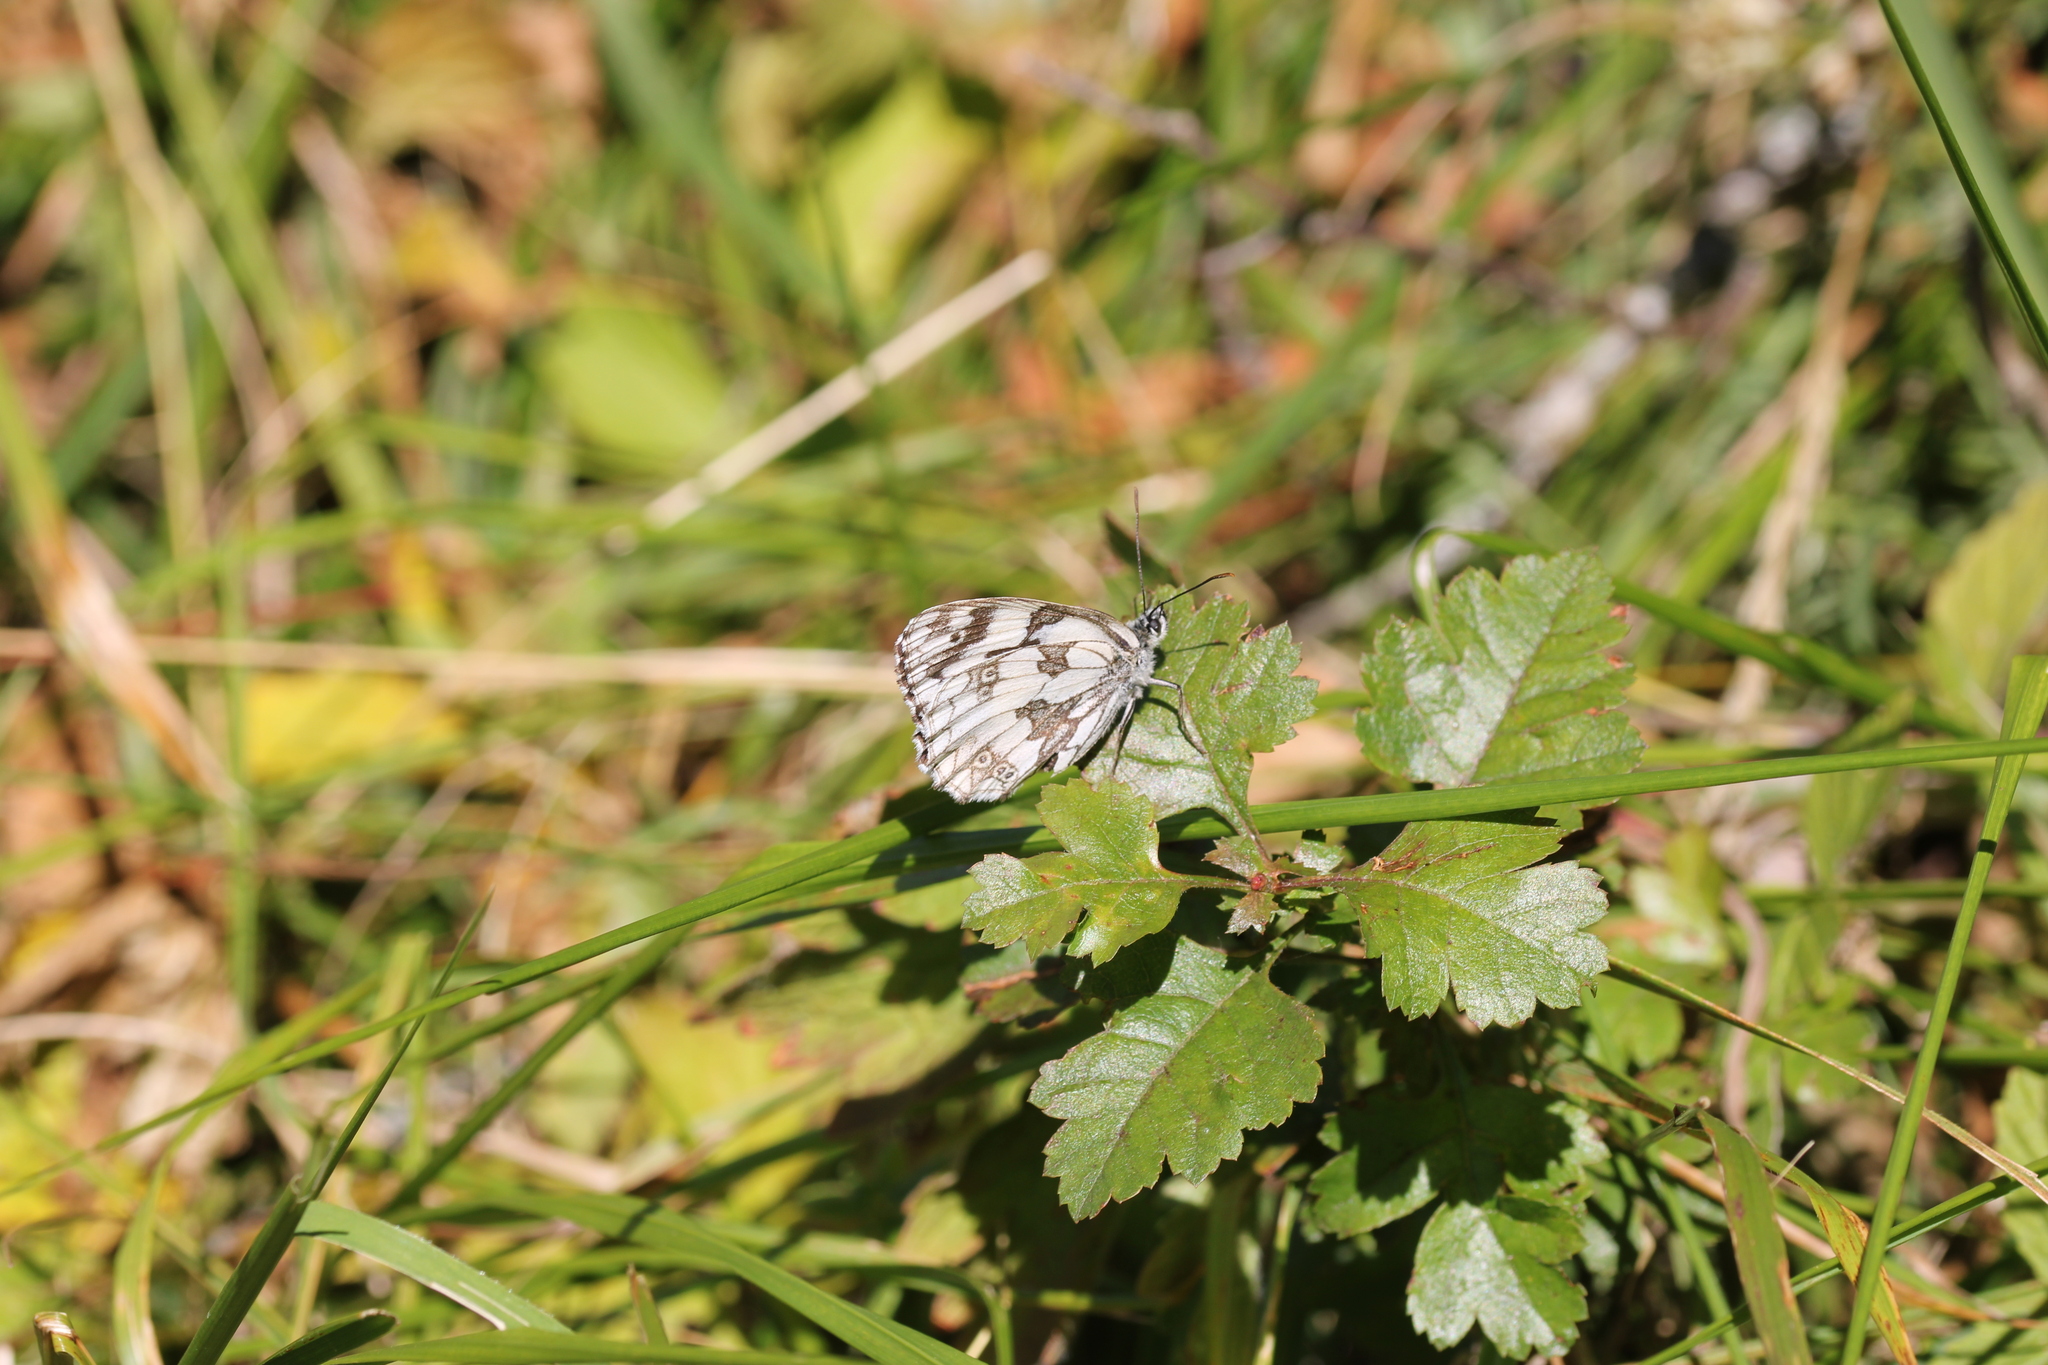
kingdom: Animalia
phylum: Arthropoda
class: Insecta
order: Lepidoptera
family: Nymphalidae
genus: Melanargia
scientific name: Melanargia galathea
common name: Marbled white
